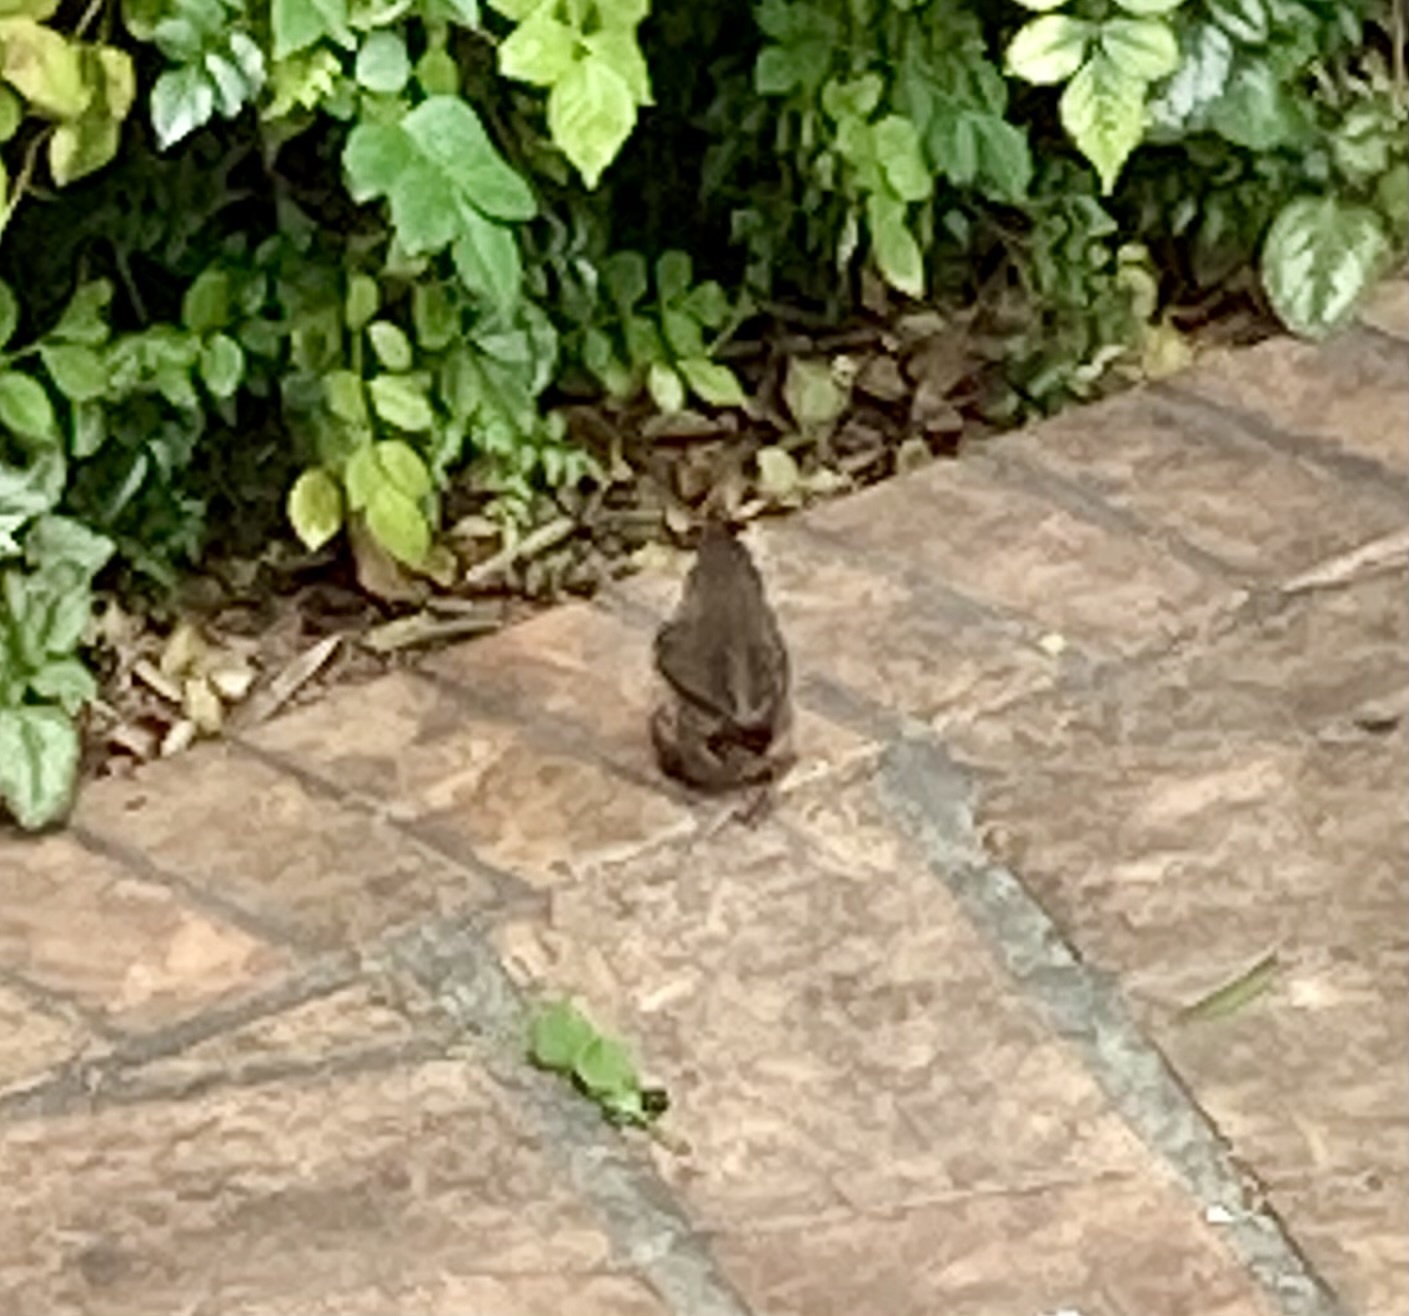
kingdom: Animalia
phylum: Chordata
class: Aves
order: Passeriformes
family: Troglodytidae
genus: Troglodytes
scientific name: Troglodytes aedon
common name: House wren
